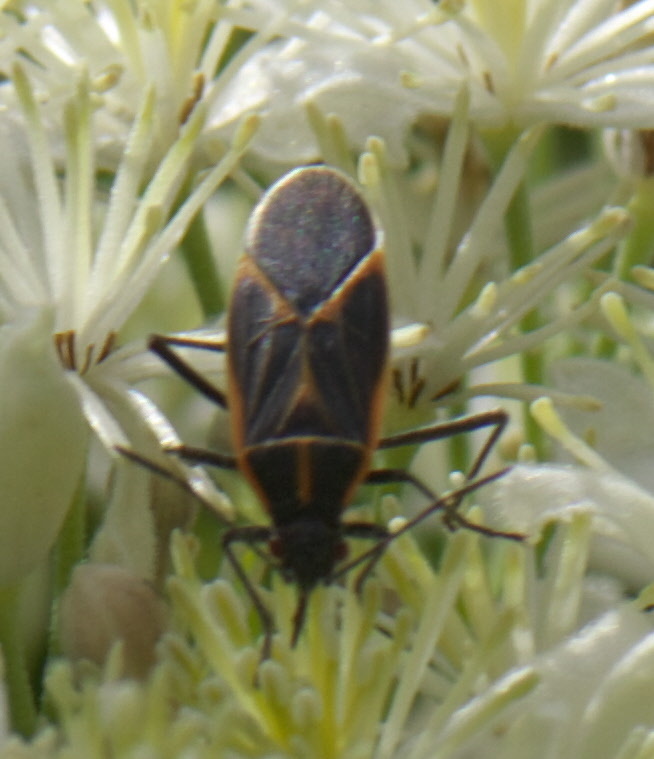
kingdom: Animalia
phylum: Arthropoda
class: Insecta
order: Hemiptera
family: Rhopalidae
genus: Boisea
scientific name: Boisea trivittata
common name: Boxelder bug
